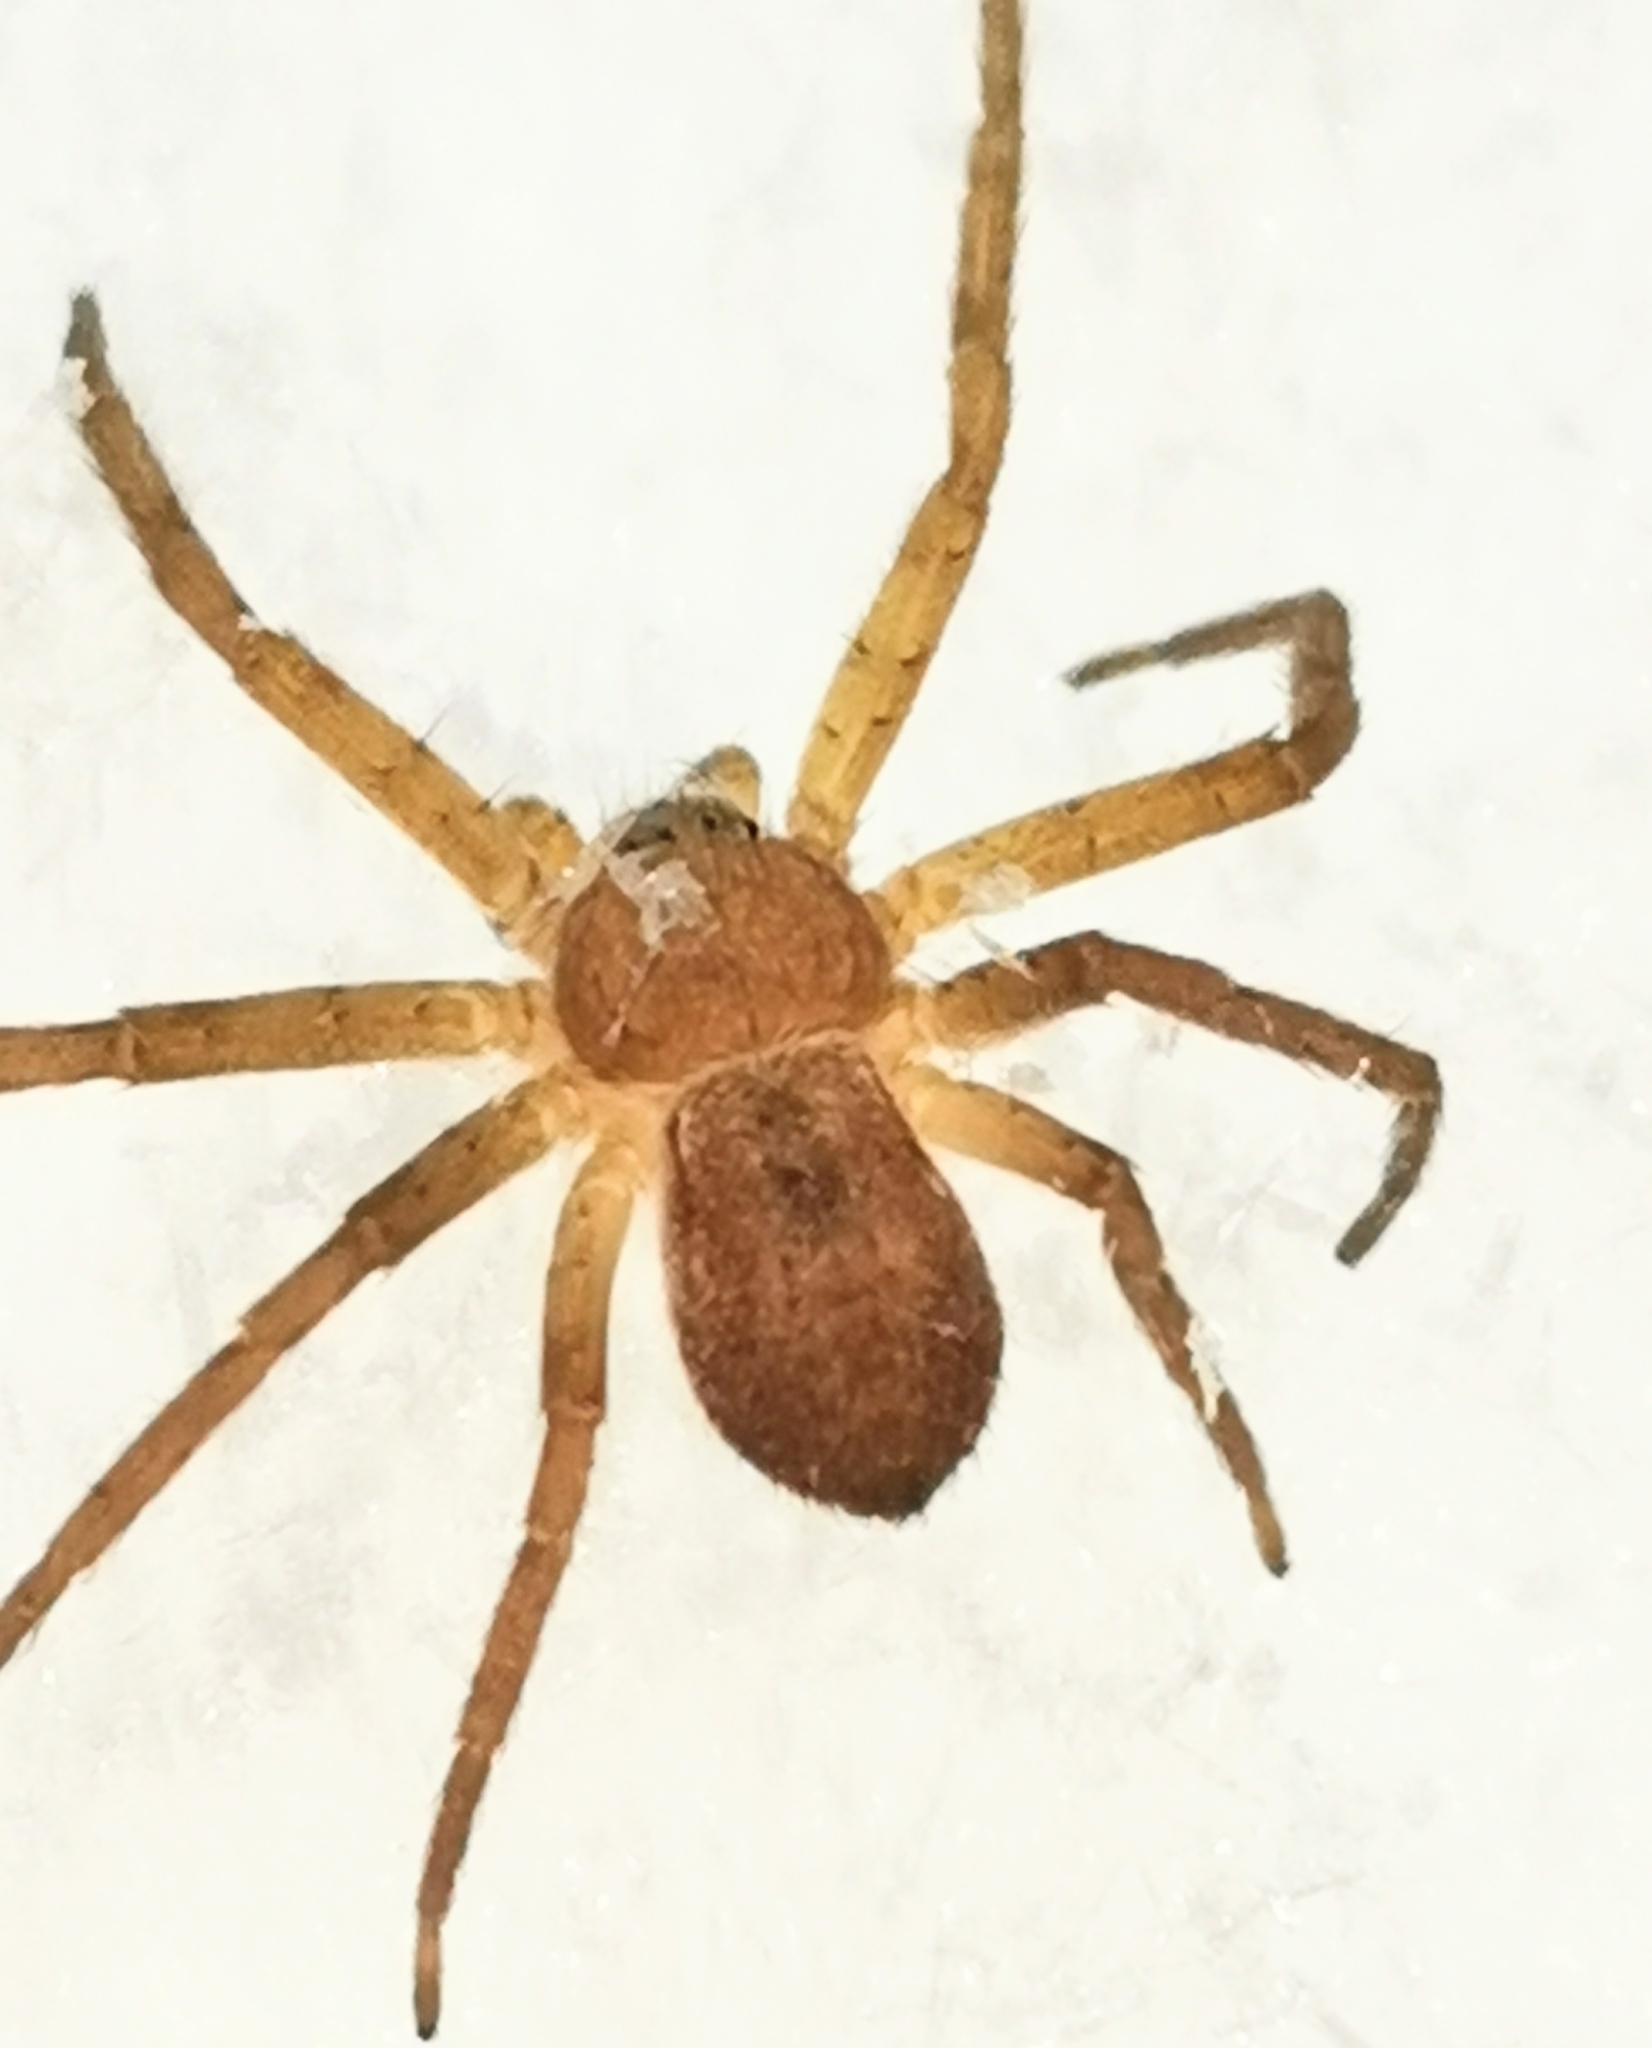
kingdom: Animalia
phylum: Arthropoda
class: Arachnida
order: Araneae
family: Philodromidae
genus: Philodromus
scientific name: Philodromus fuscomarginatus
